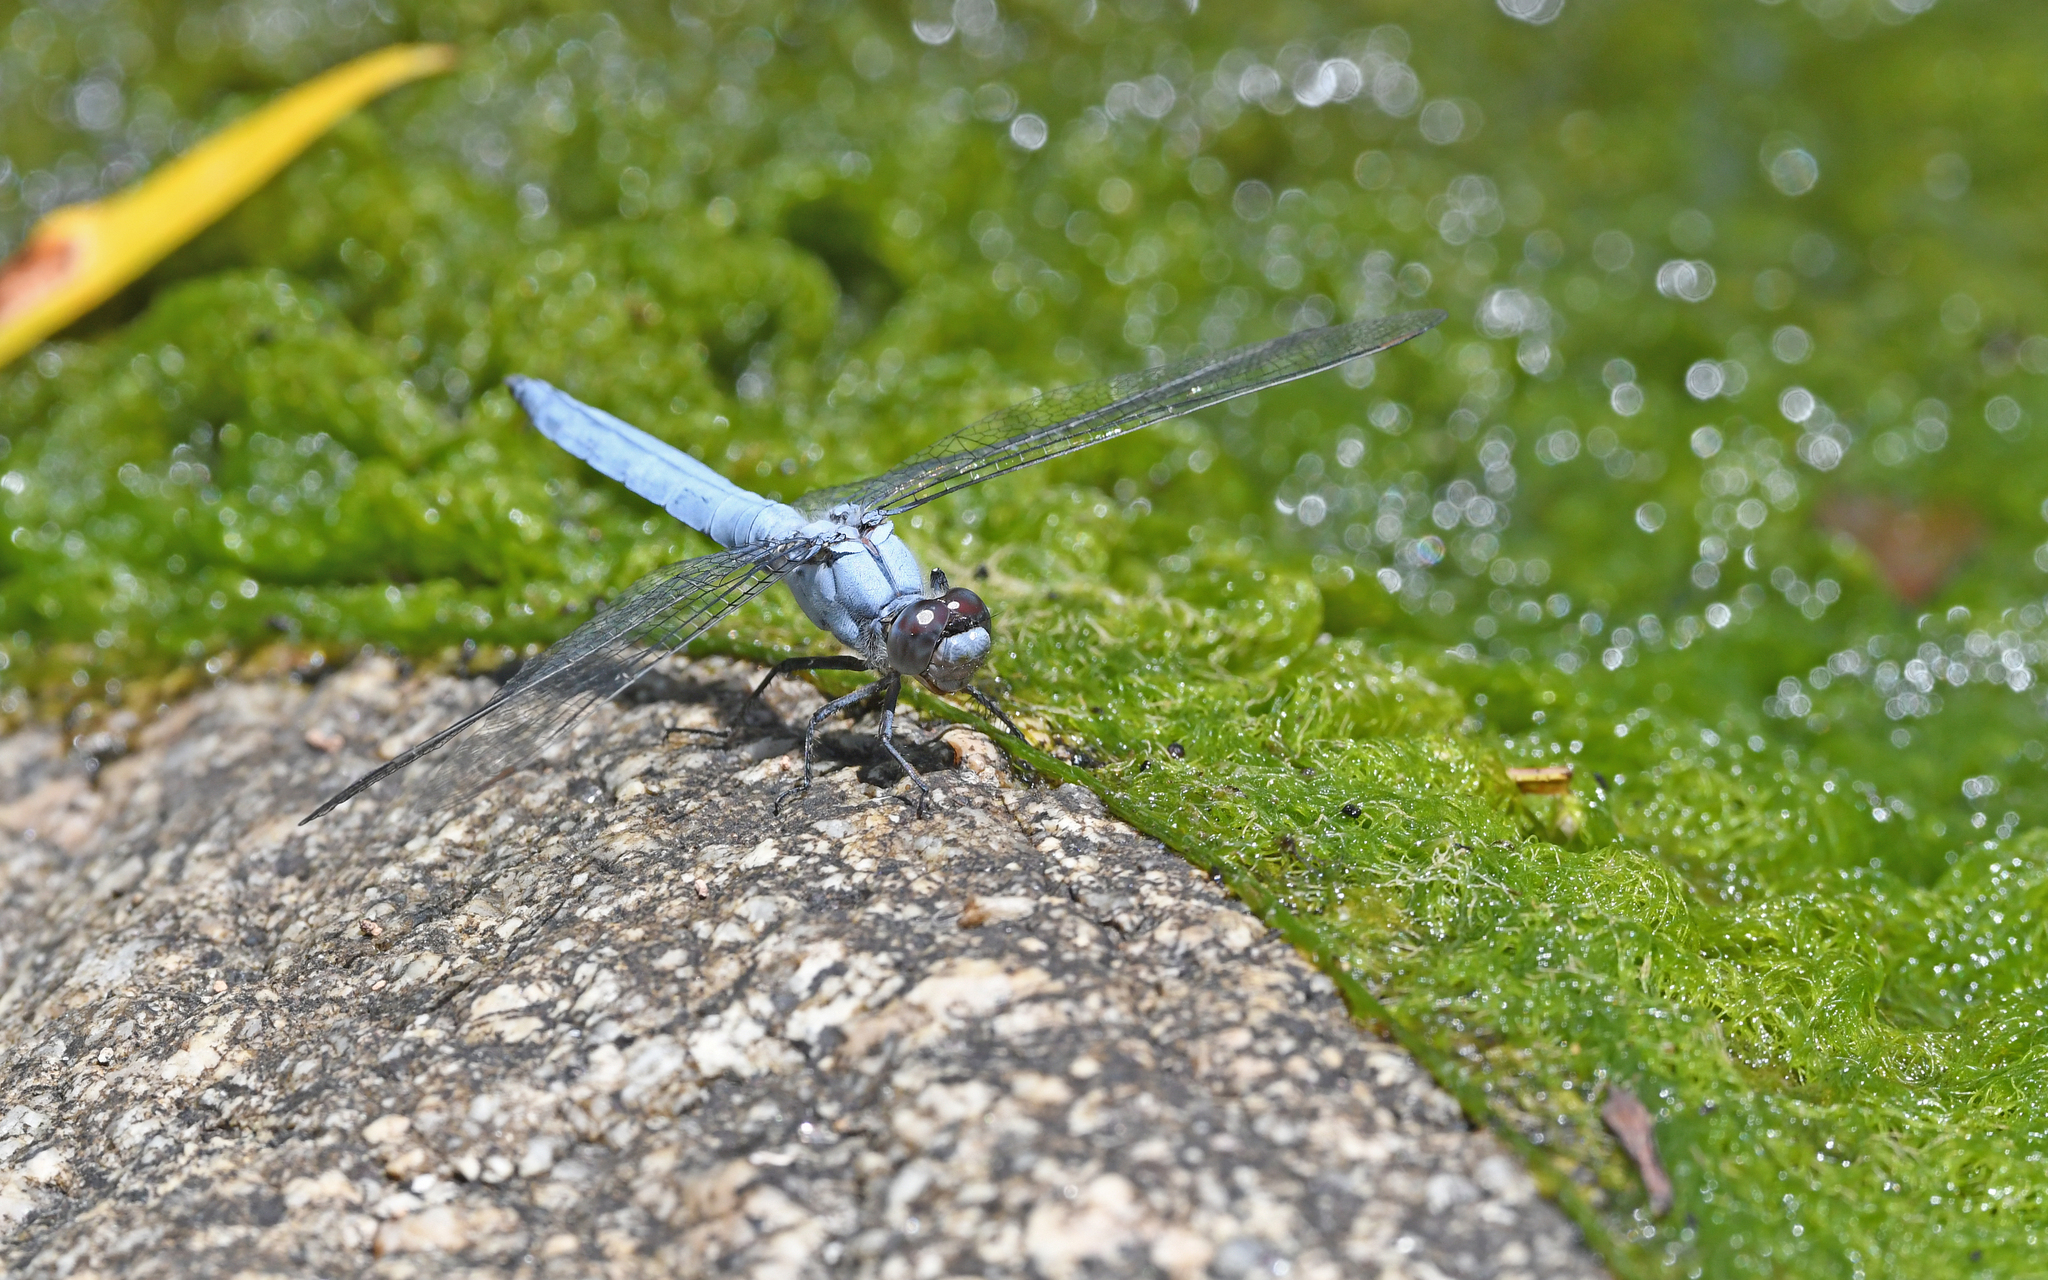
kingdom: Animalia
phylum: Arthropoda
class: Insecta
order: Odonata
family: Libellulidae
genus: Orthetrum
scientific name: Orthetrum brunneum
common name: Southern skimmer
